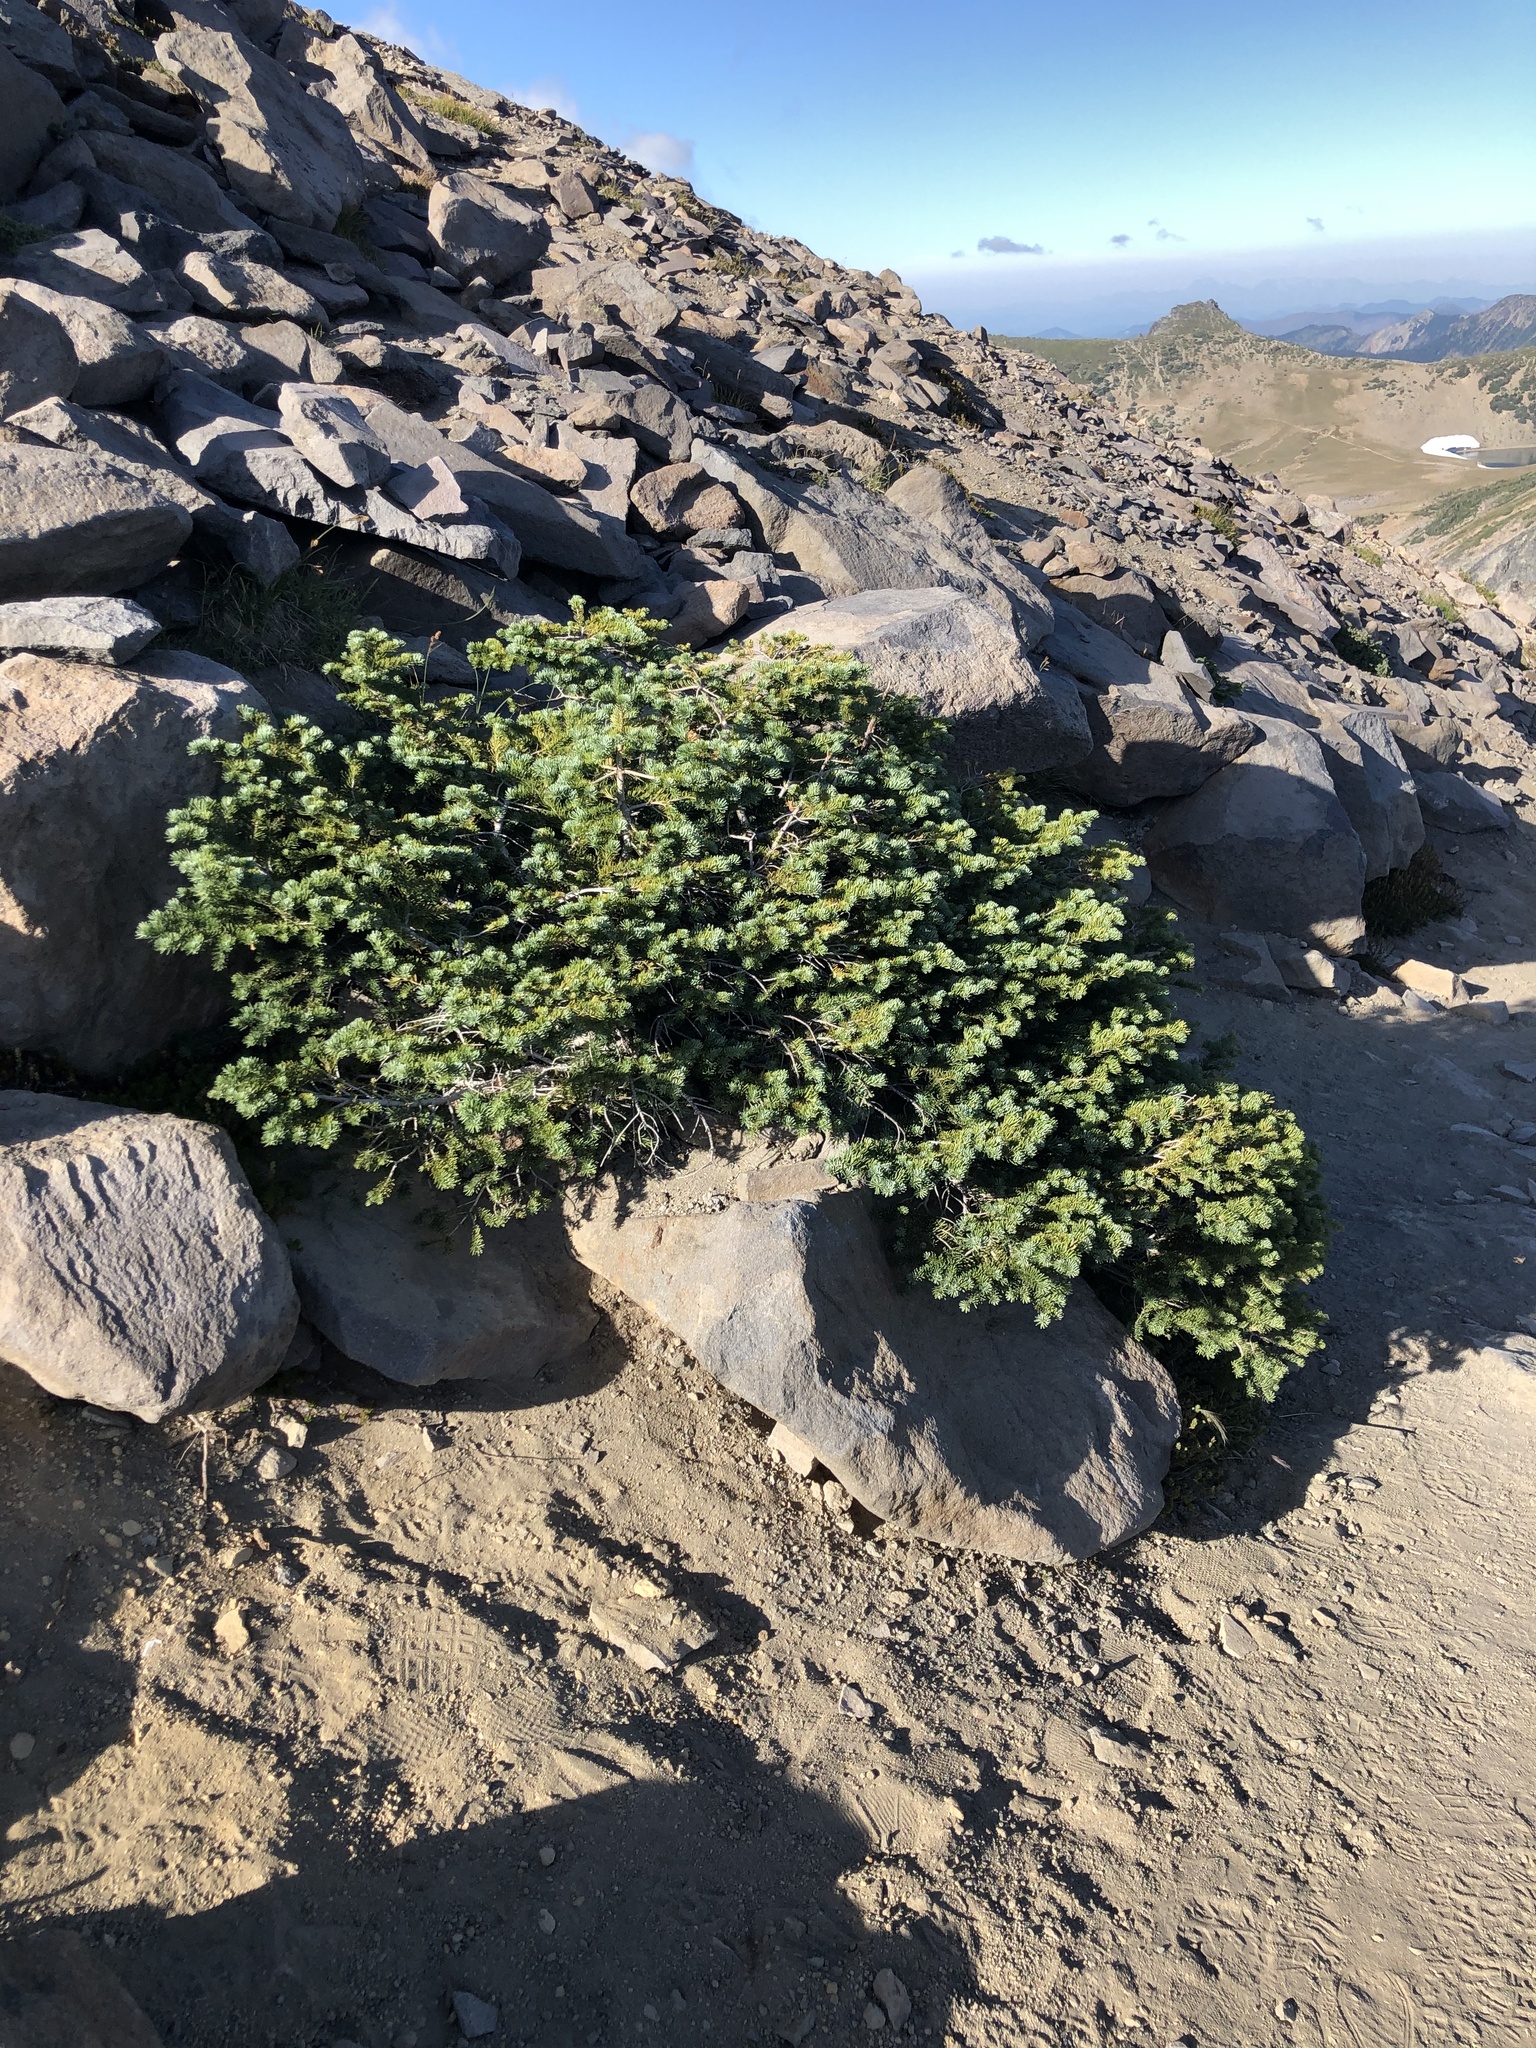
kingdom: Plantae
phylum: Tracheophyta
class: Pinopsida
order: Pinales
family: Pinaceae
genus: Picea
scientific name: Picea engelmannii
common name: Engelmann spruce
